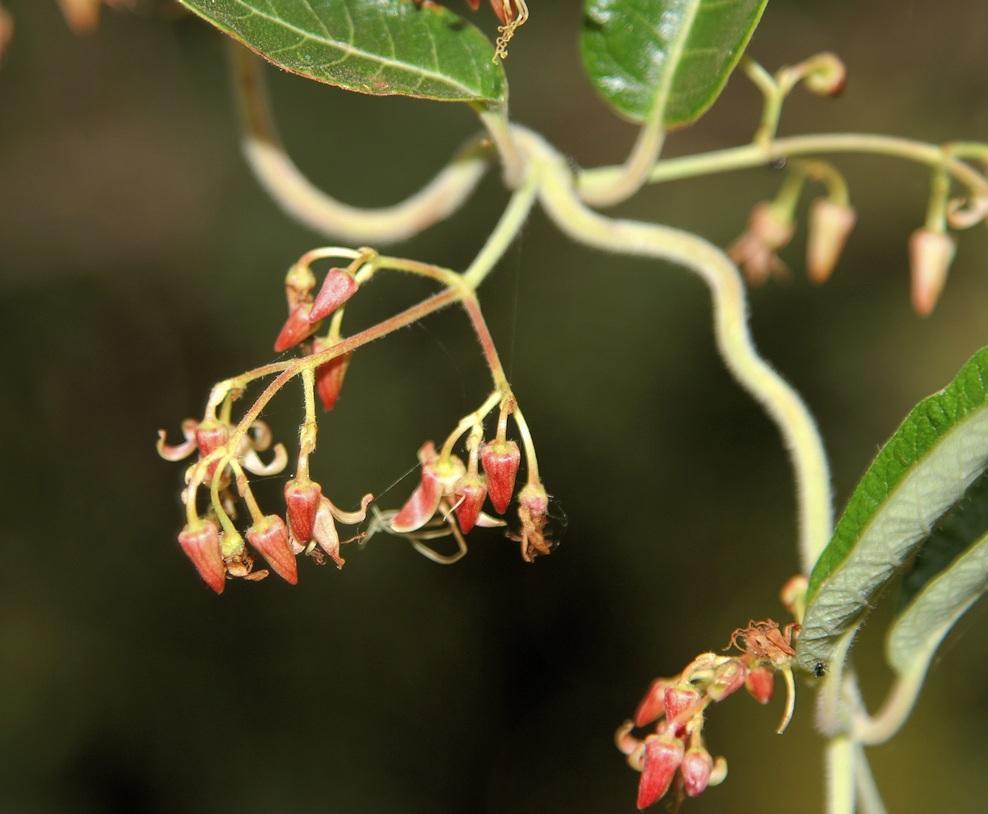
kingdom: Plantae
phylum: Tracheophyta
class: Magnoliopsida
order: Gentianales
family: Apocynaceae
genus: Tacazzea
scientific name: Tacazzea apiculata
